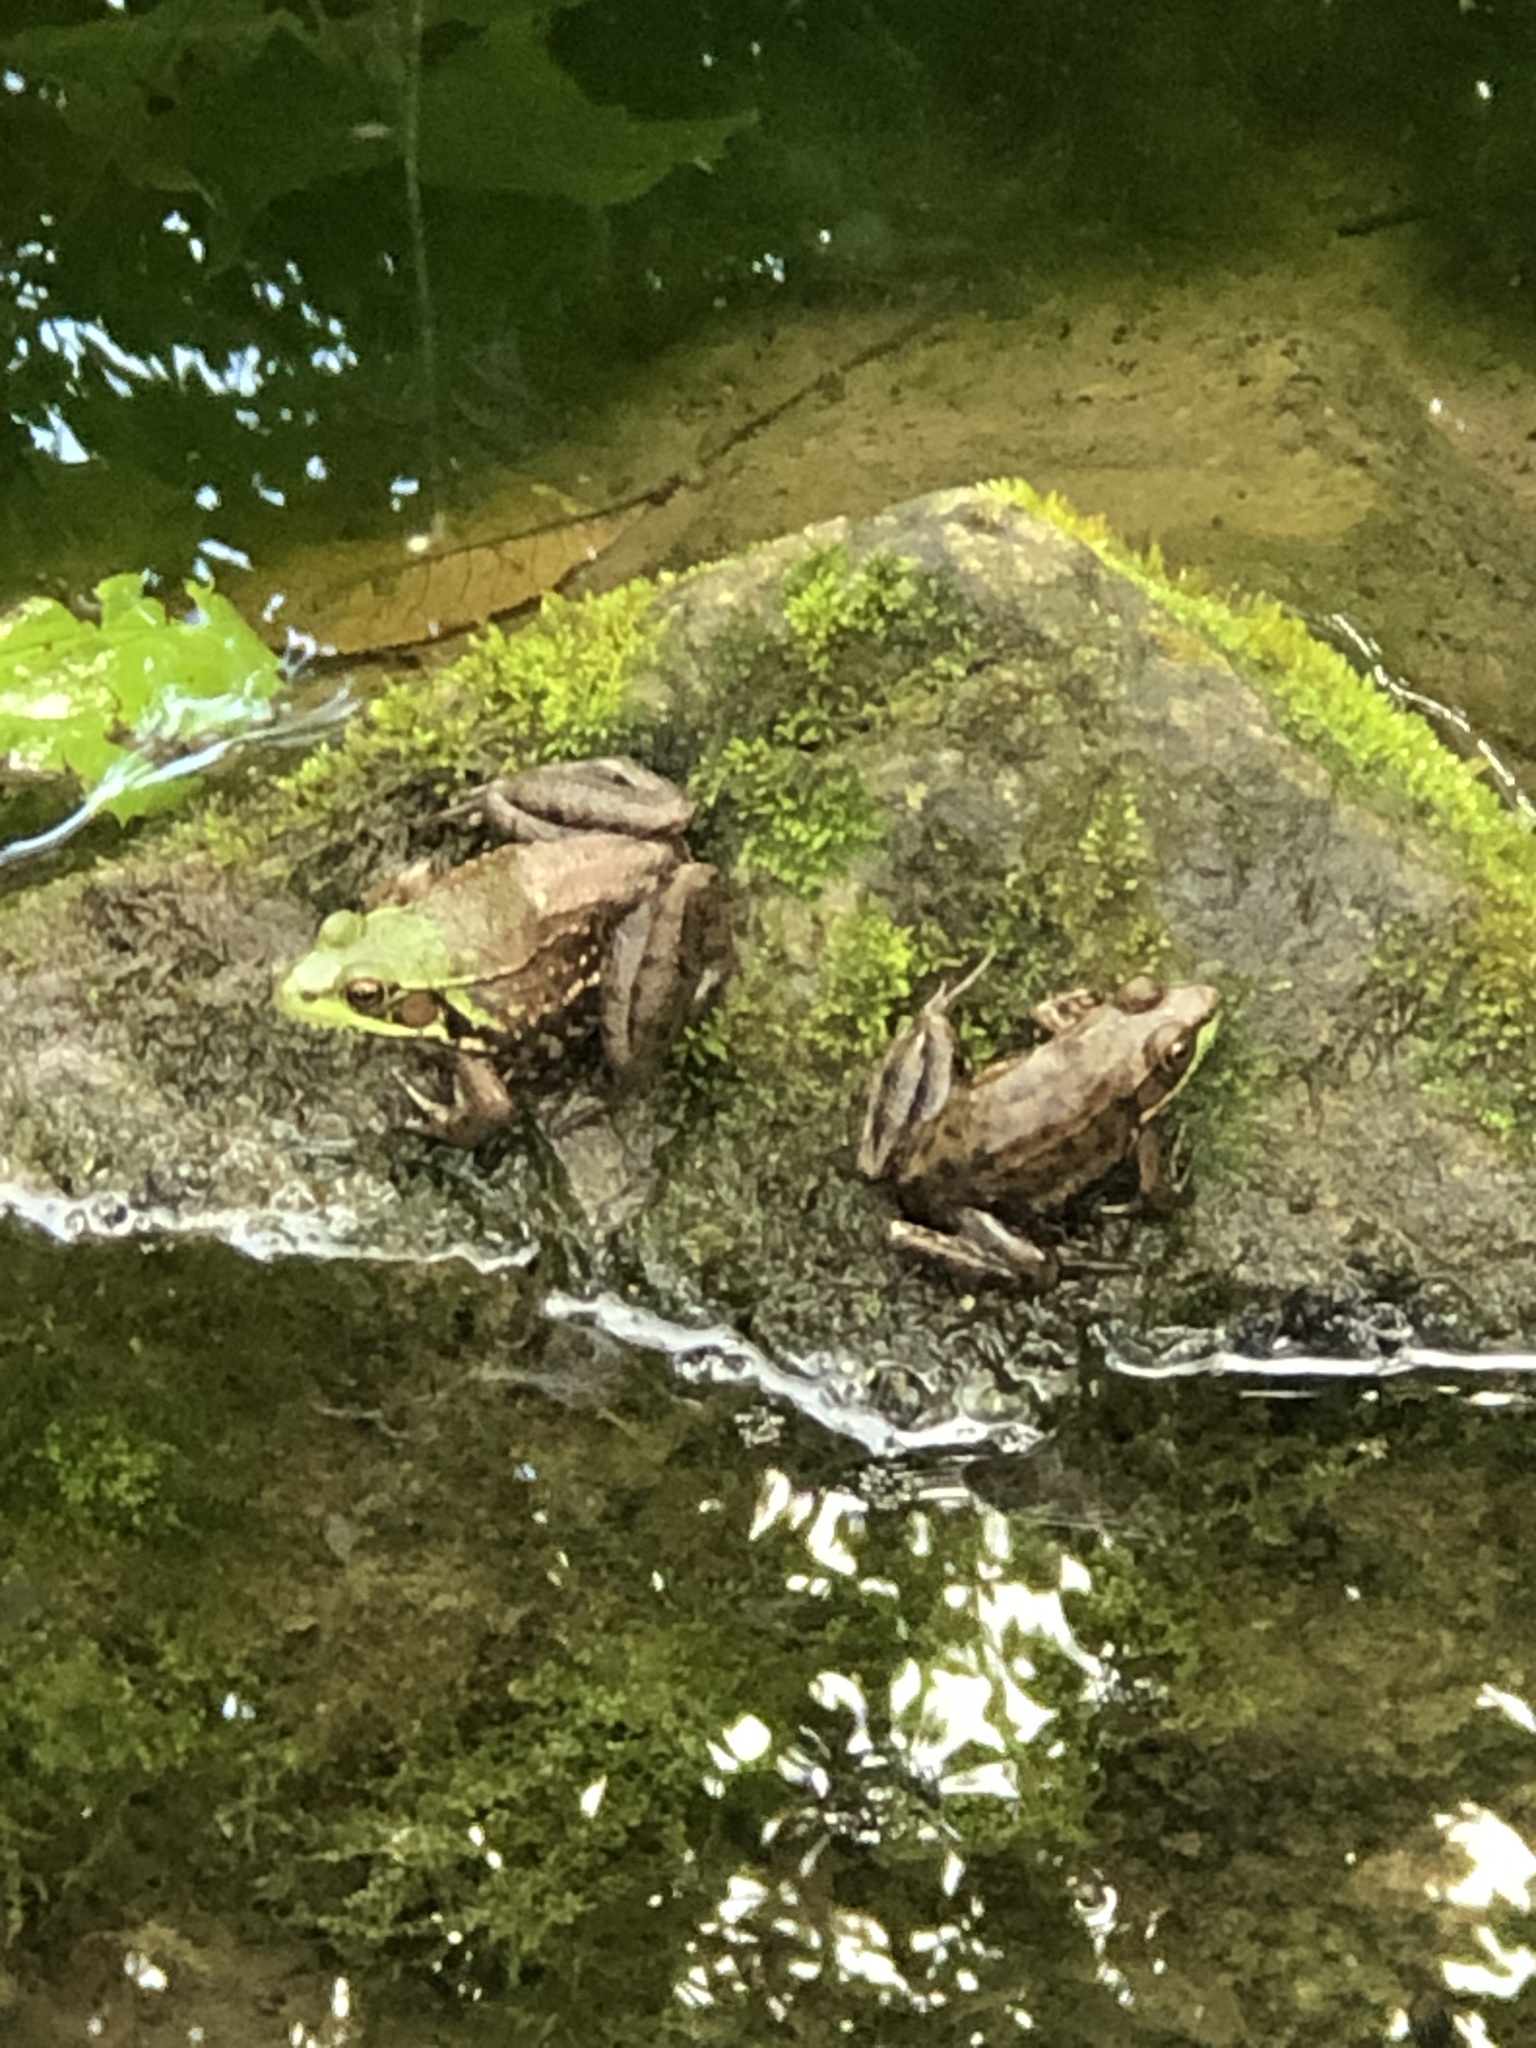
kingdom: Animalia
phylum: Chordata
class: Amphibia
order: Anura
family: Ranidae
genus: Lithobates
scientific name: Lithobates clamitans
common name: Green frog
